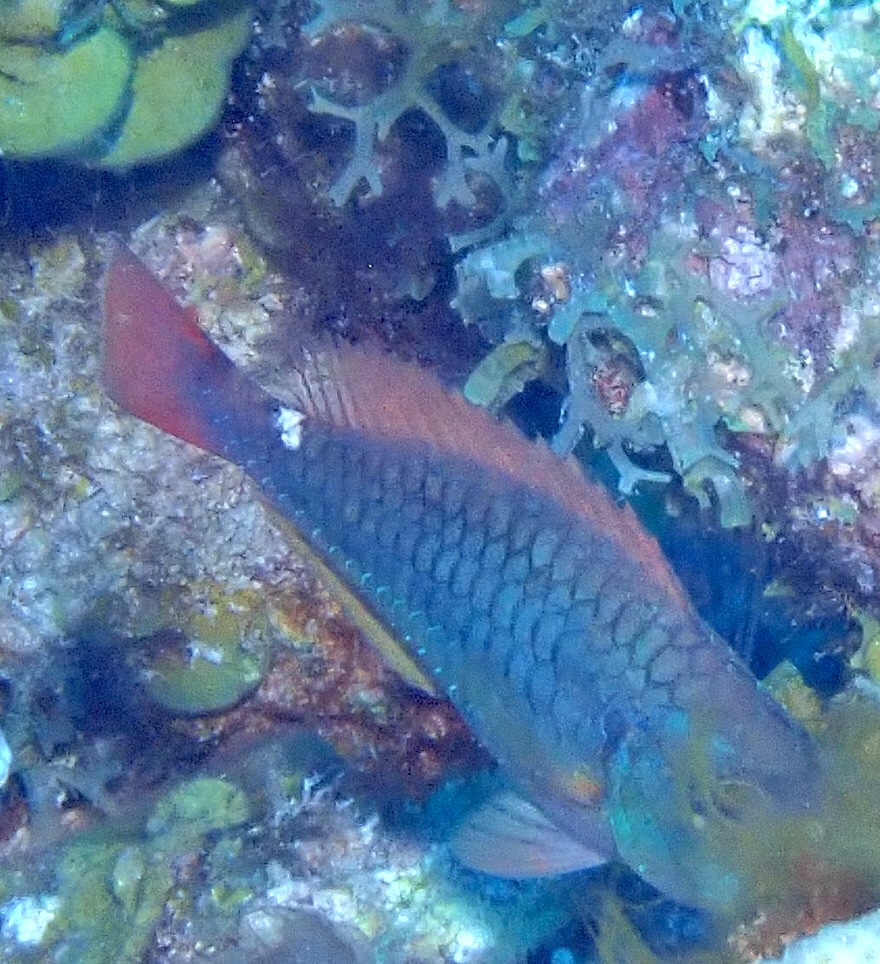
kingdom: Animalia
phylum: Chordata
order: Perciformes
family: Scaridae
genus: Sparisoma
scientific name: Sparisoma aurofrenatum
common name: Redband parrotfish
